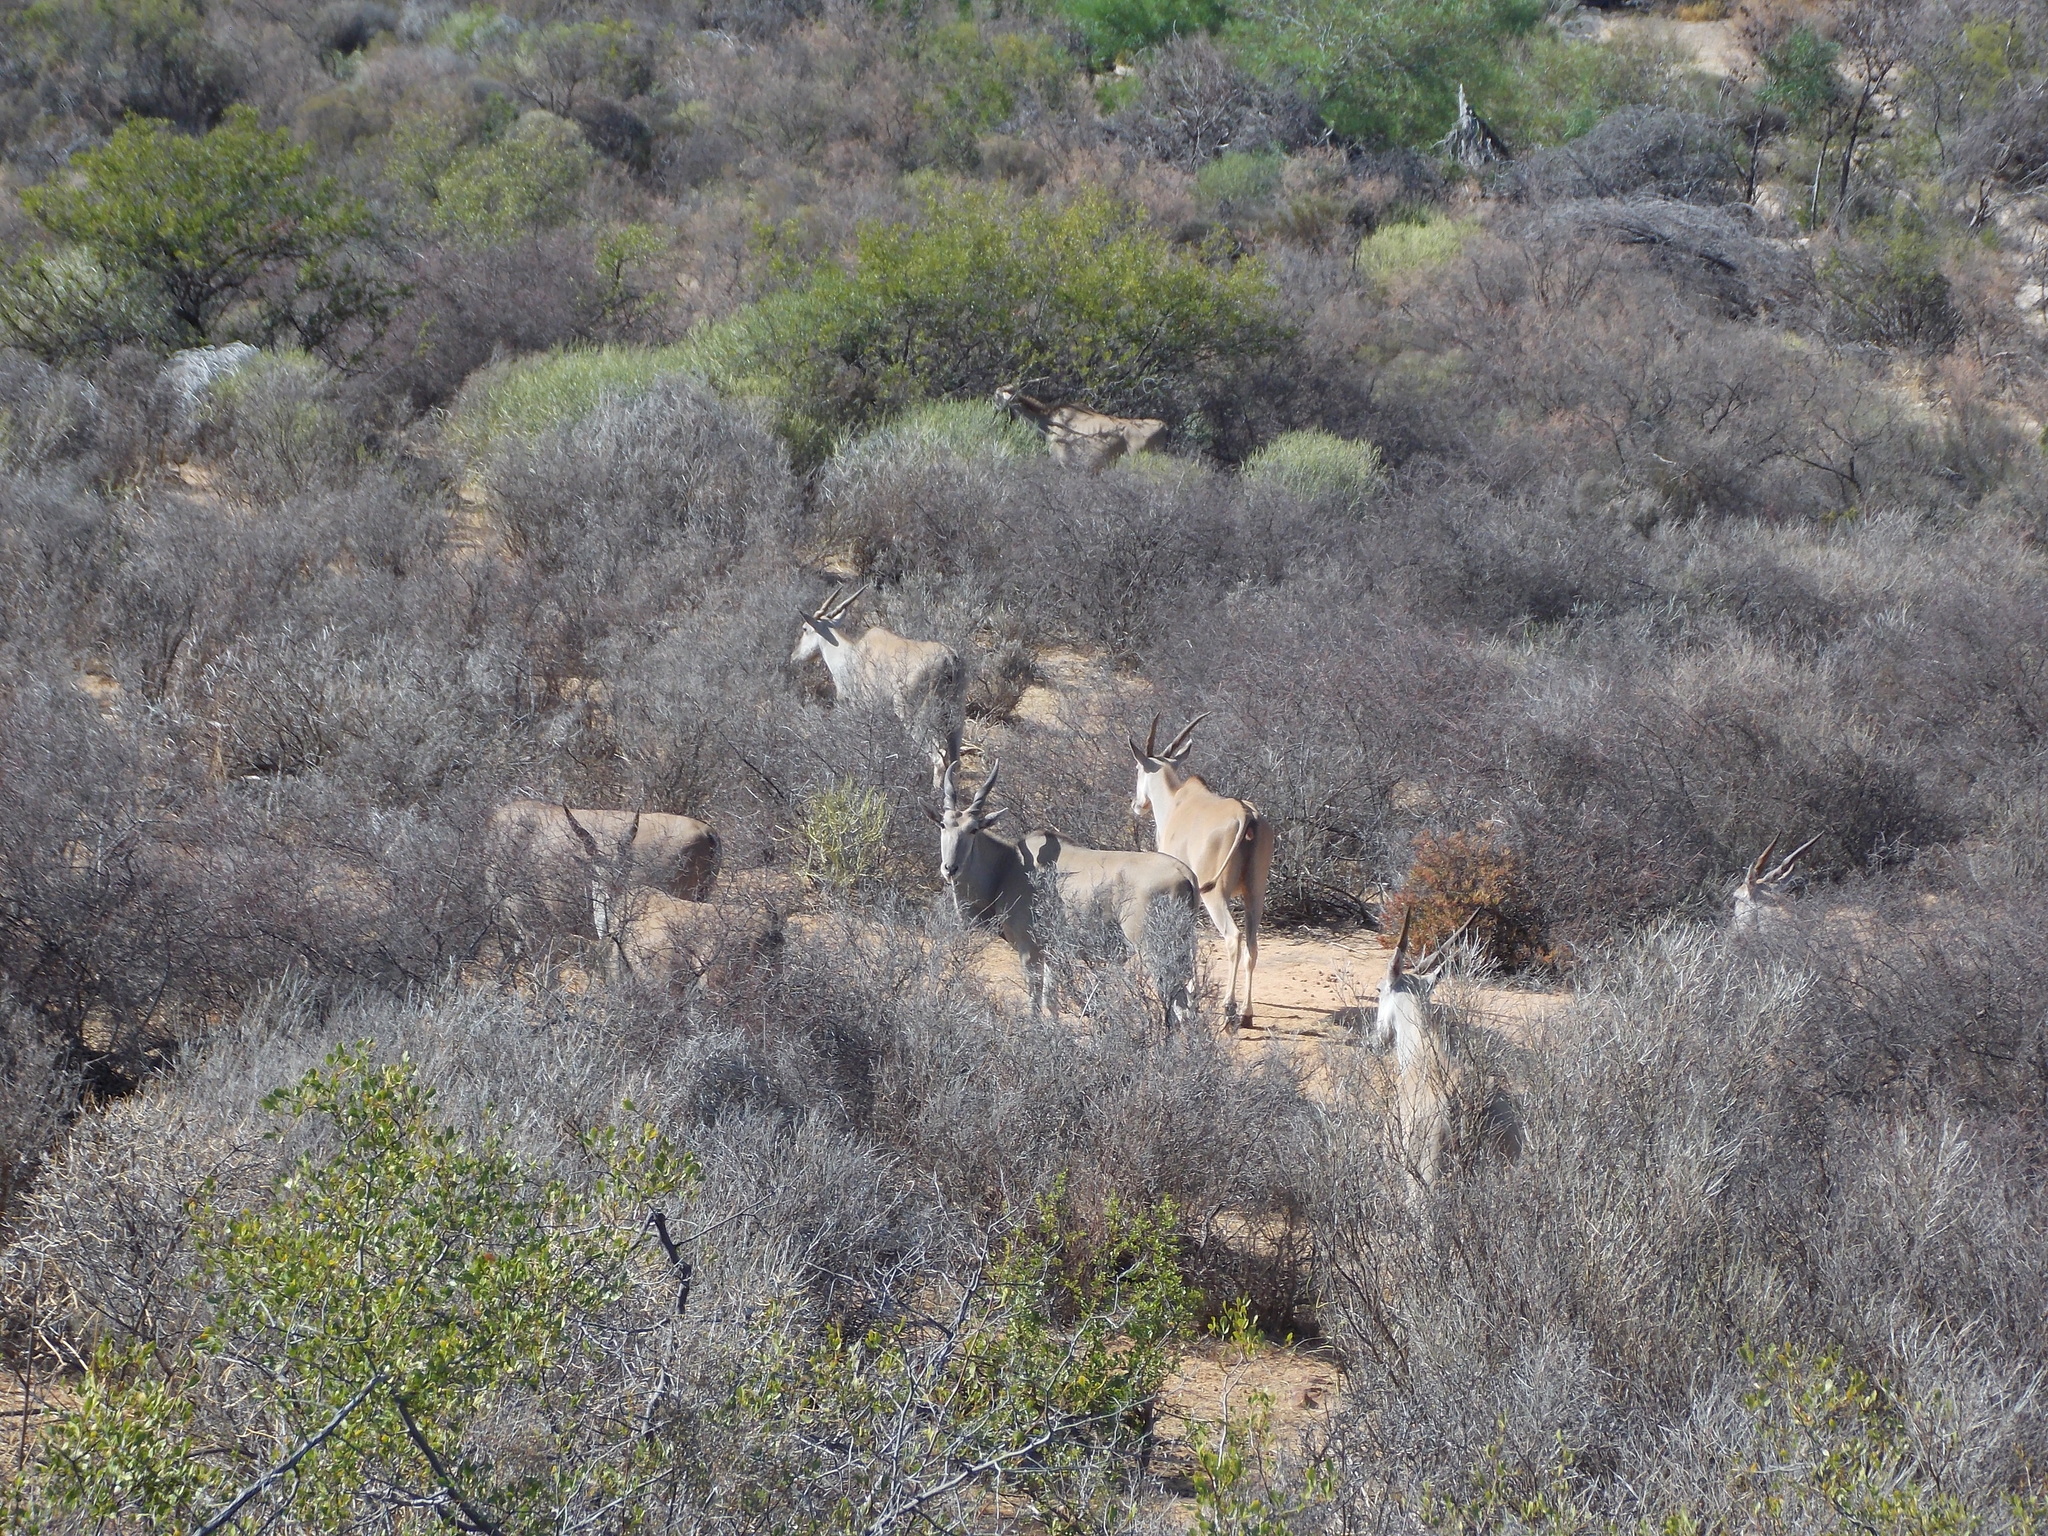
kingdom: Animalia
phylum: Chordata
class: Mammalia
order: Artiodactyla
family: Bovidae
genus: Taurotragus
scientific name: Taurotragus oryx
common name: Common eland
